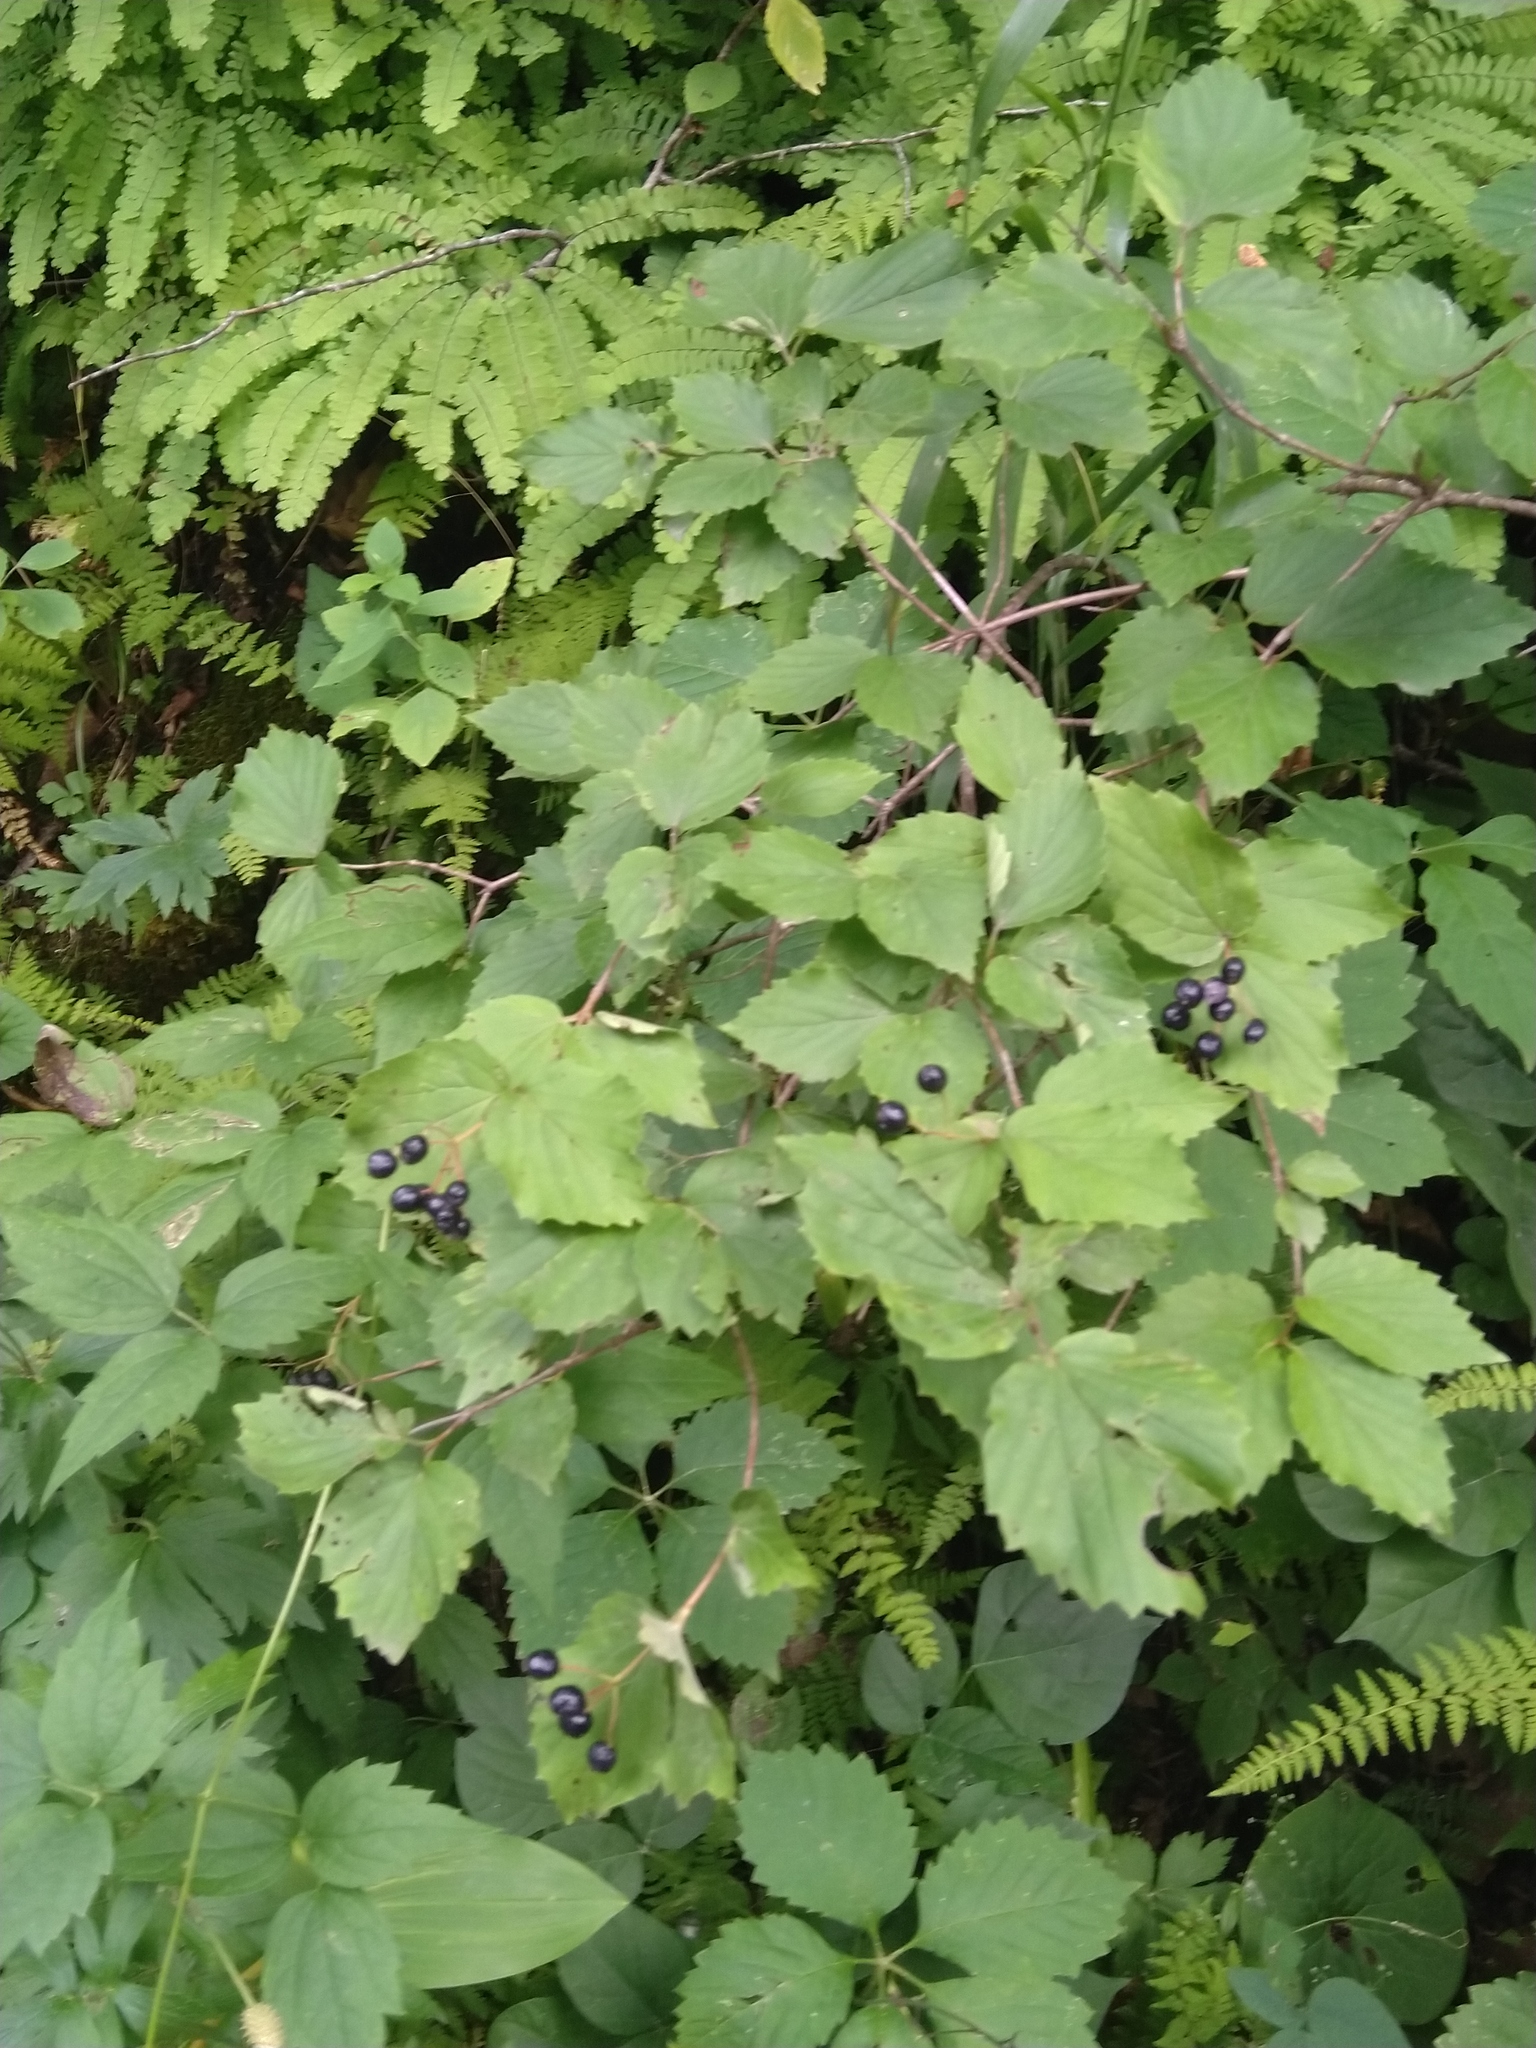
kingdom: Plantae
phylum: Tracheophyta
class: Magnoliopsida
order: Dipsacales
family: Viburnaceae
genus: Viburnum
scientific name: Viburnum rafinesqueanum
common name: Downy arrow-wood
